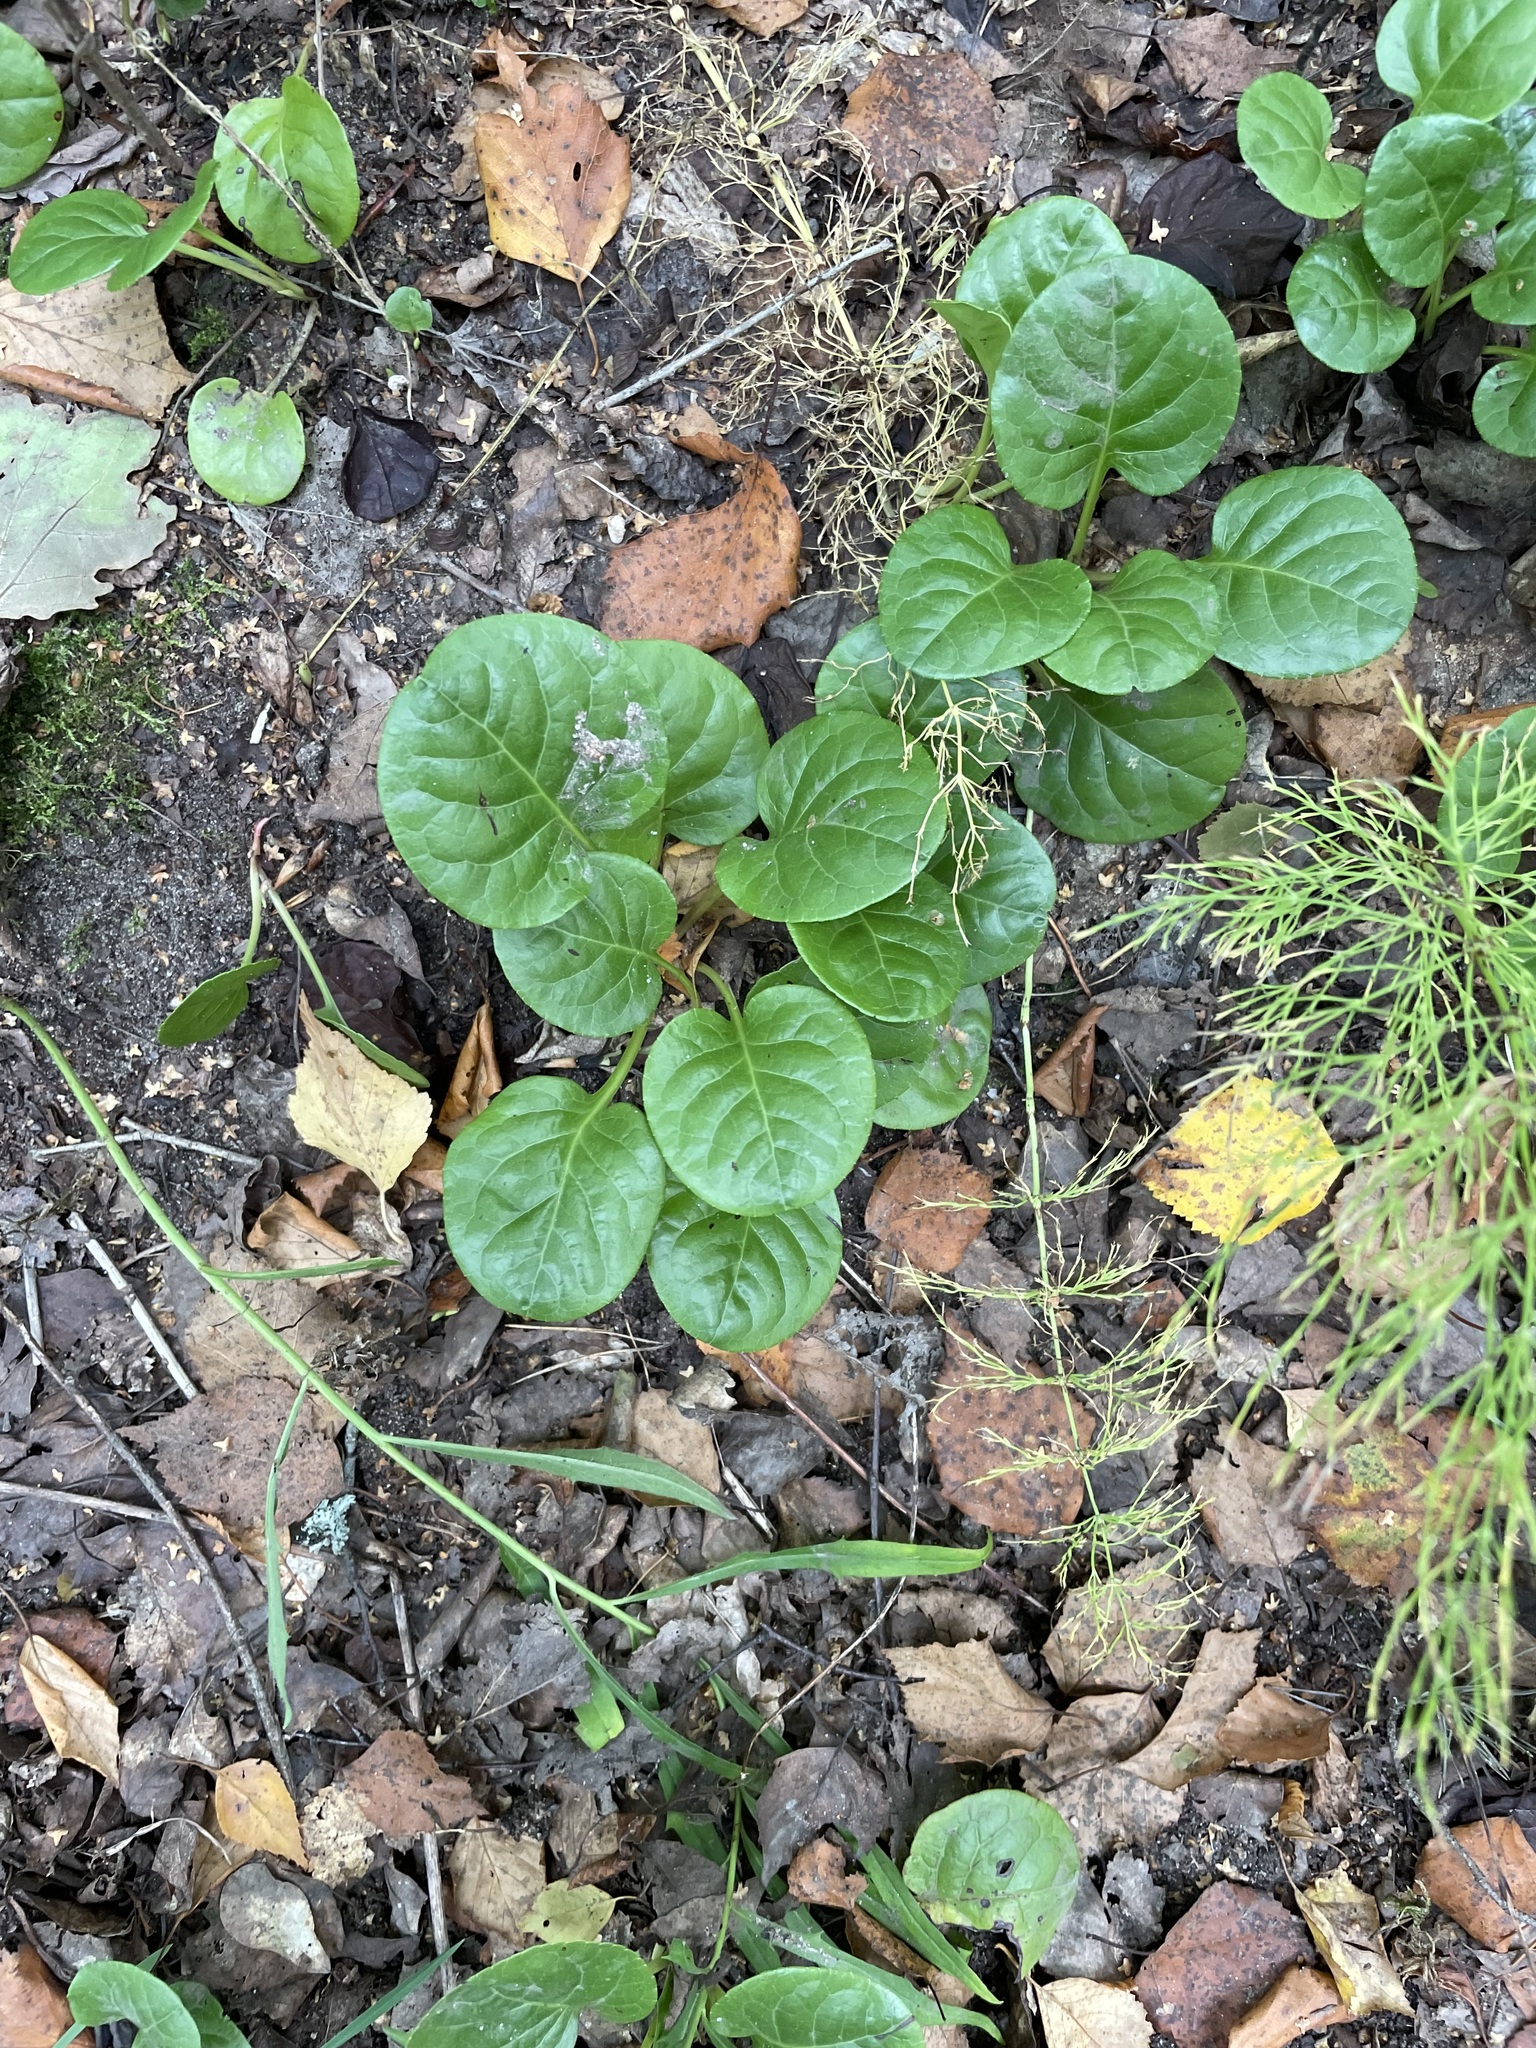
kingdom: Plantae
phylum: Tracheophyta
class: Magnoliopsida
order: Ericales
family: Ericaceae
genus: Pyrola
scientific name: Pyrola rotundifolia
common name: Round-leaved wintergreen
